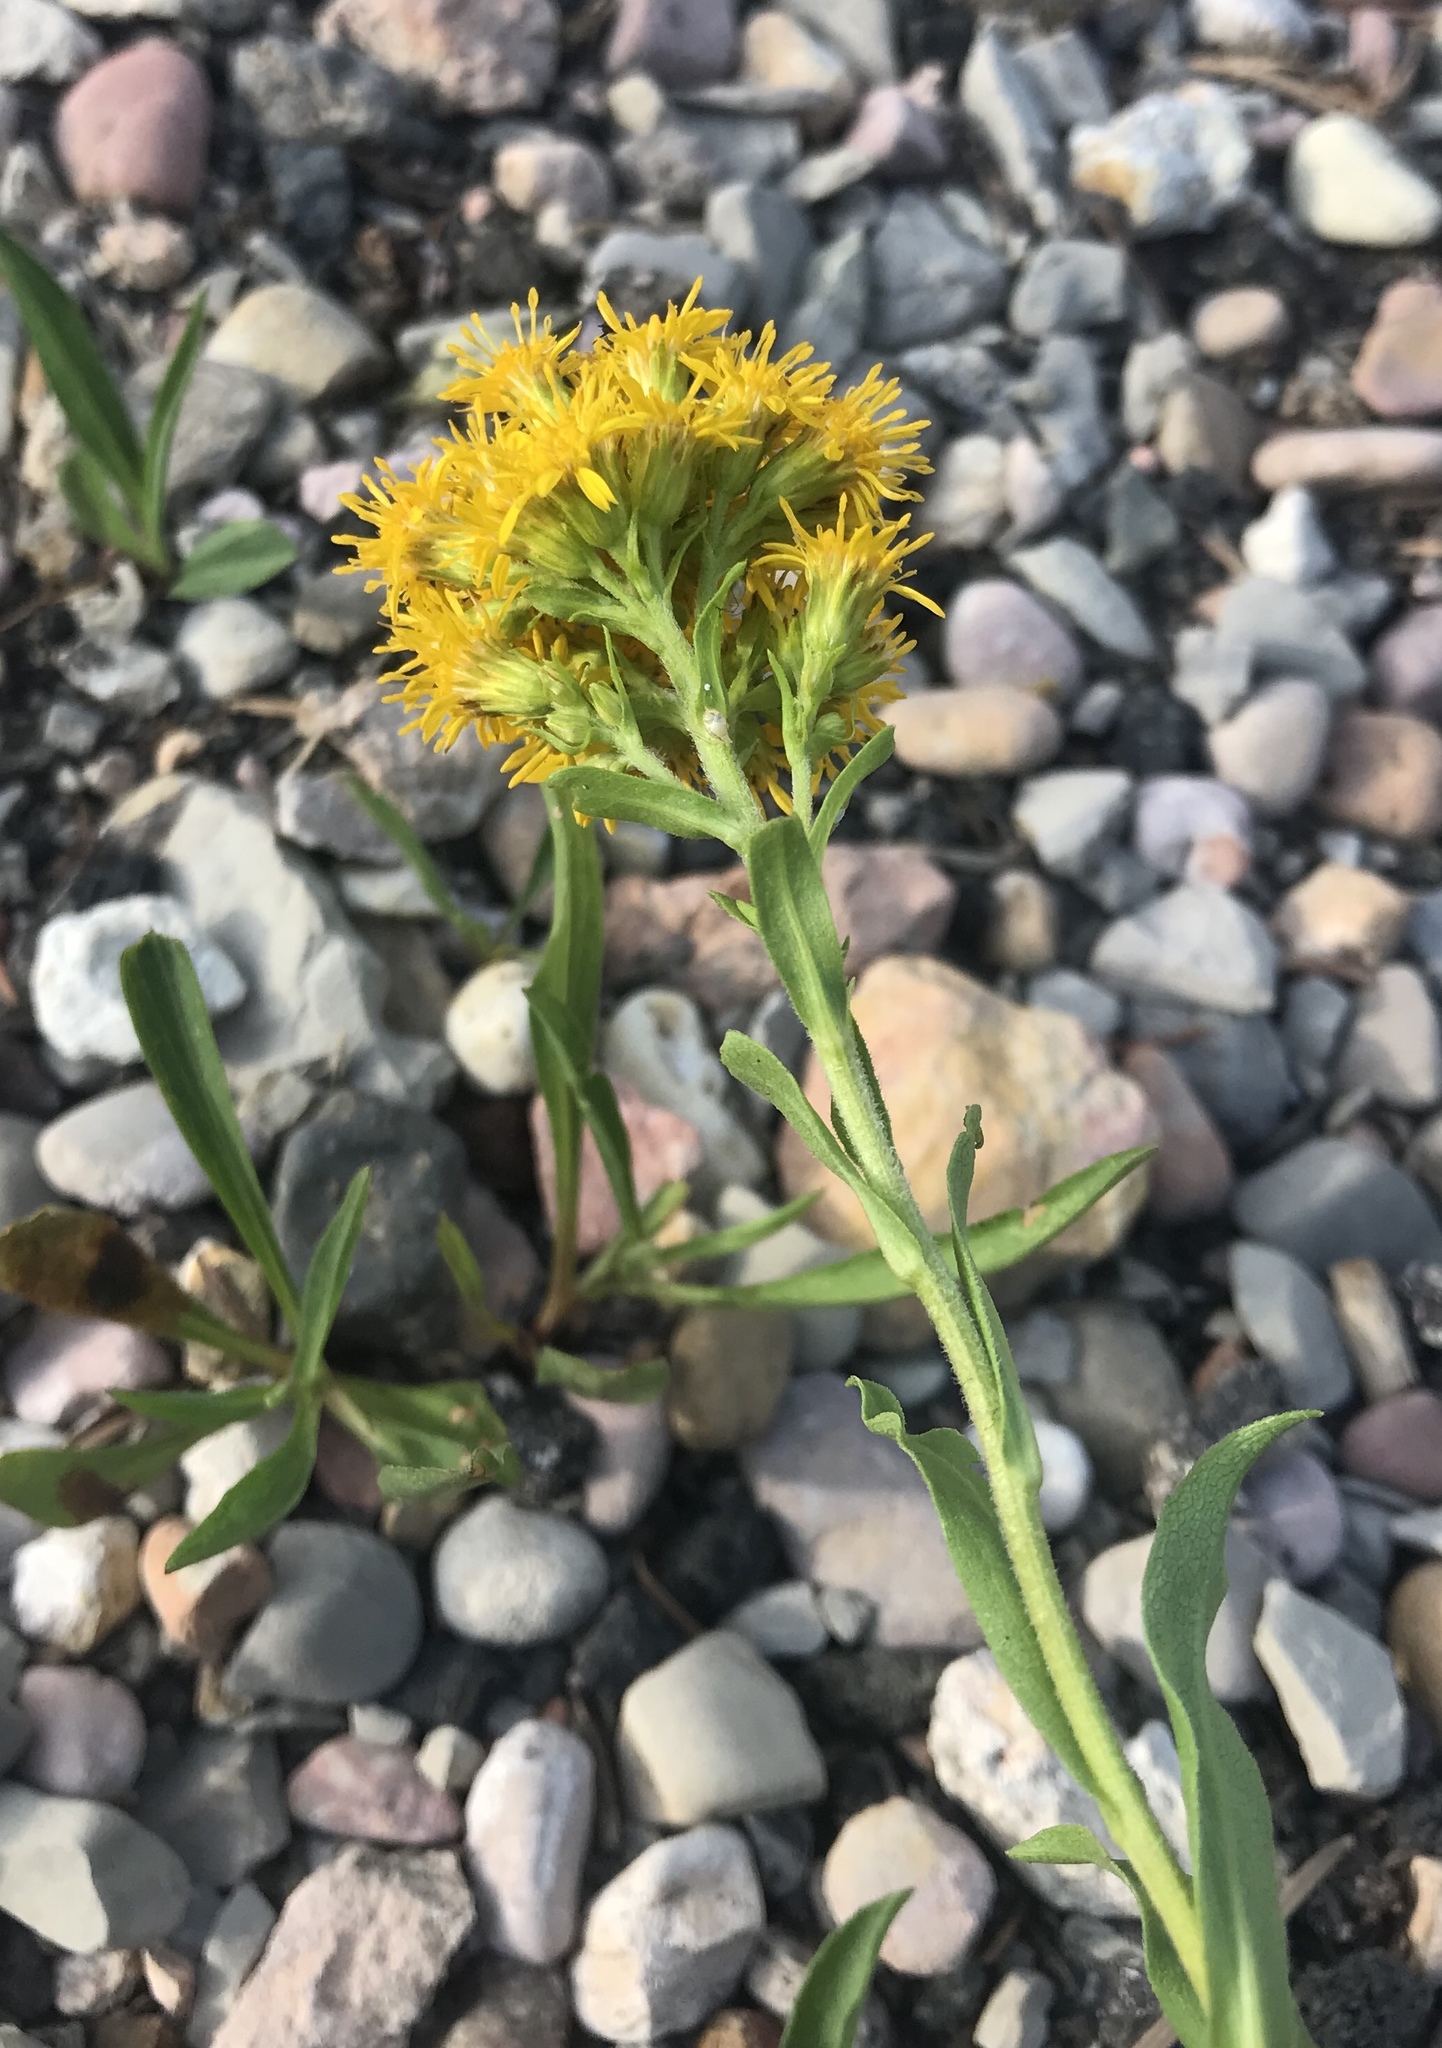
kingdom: Plantae
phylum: Tracheophyta
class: Magnoliopsida
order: Asterales
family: Asteraceae
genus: Solidago
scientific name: Solidago multiradiata
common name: Northern goldenrod
